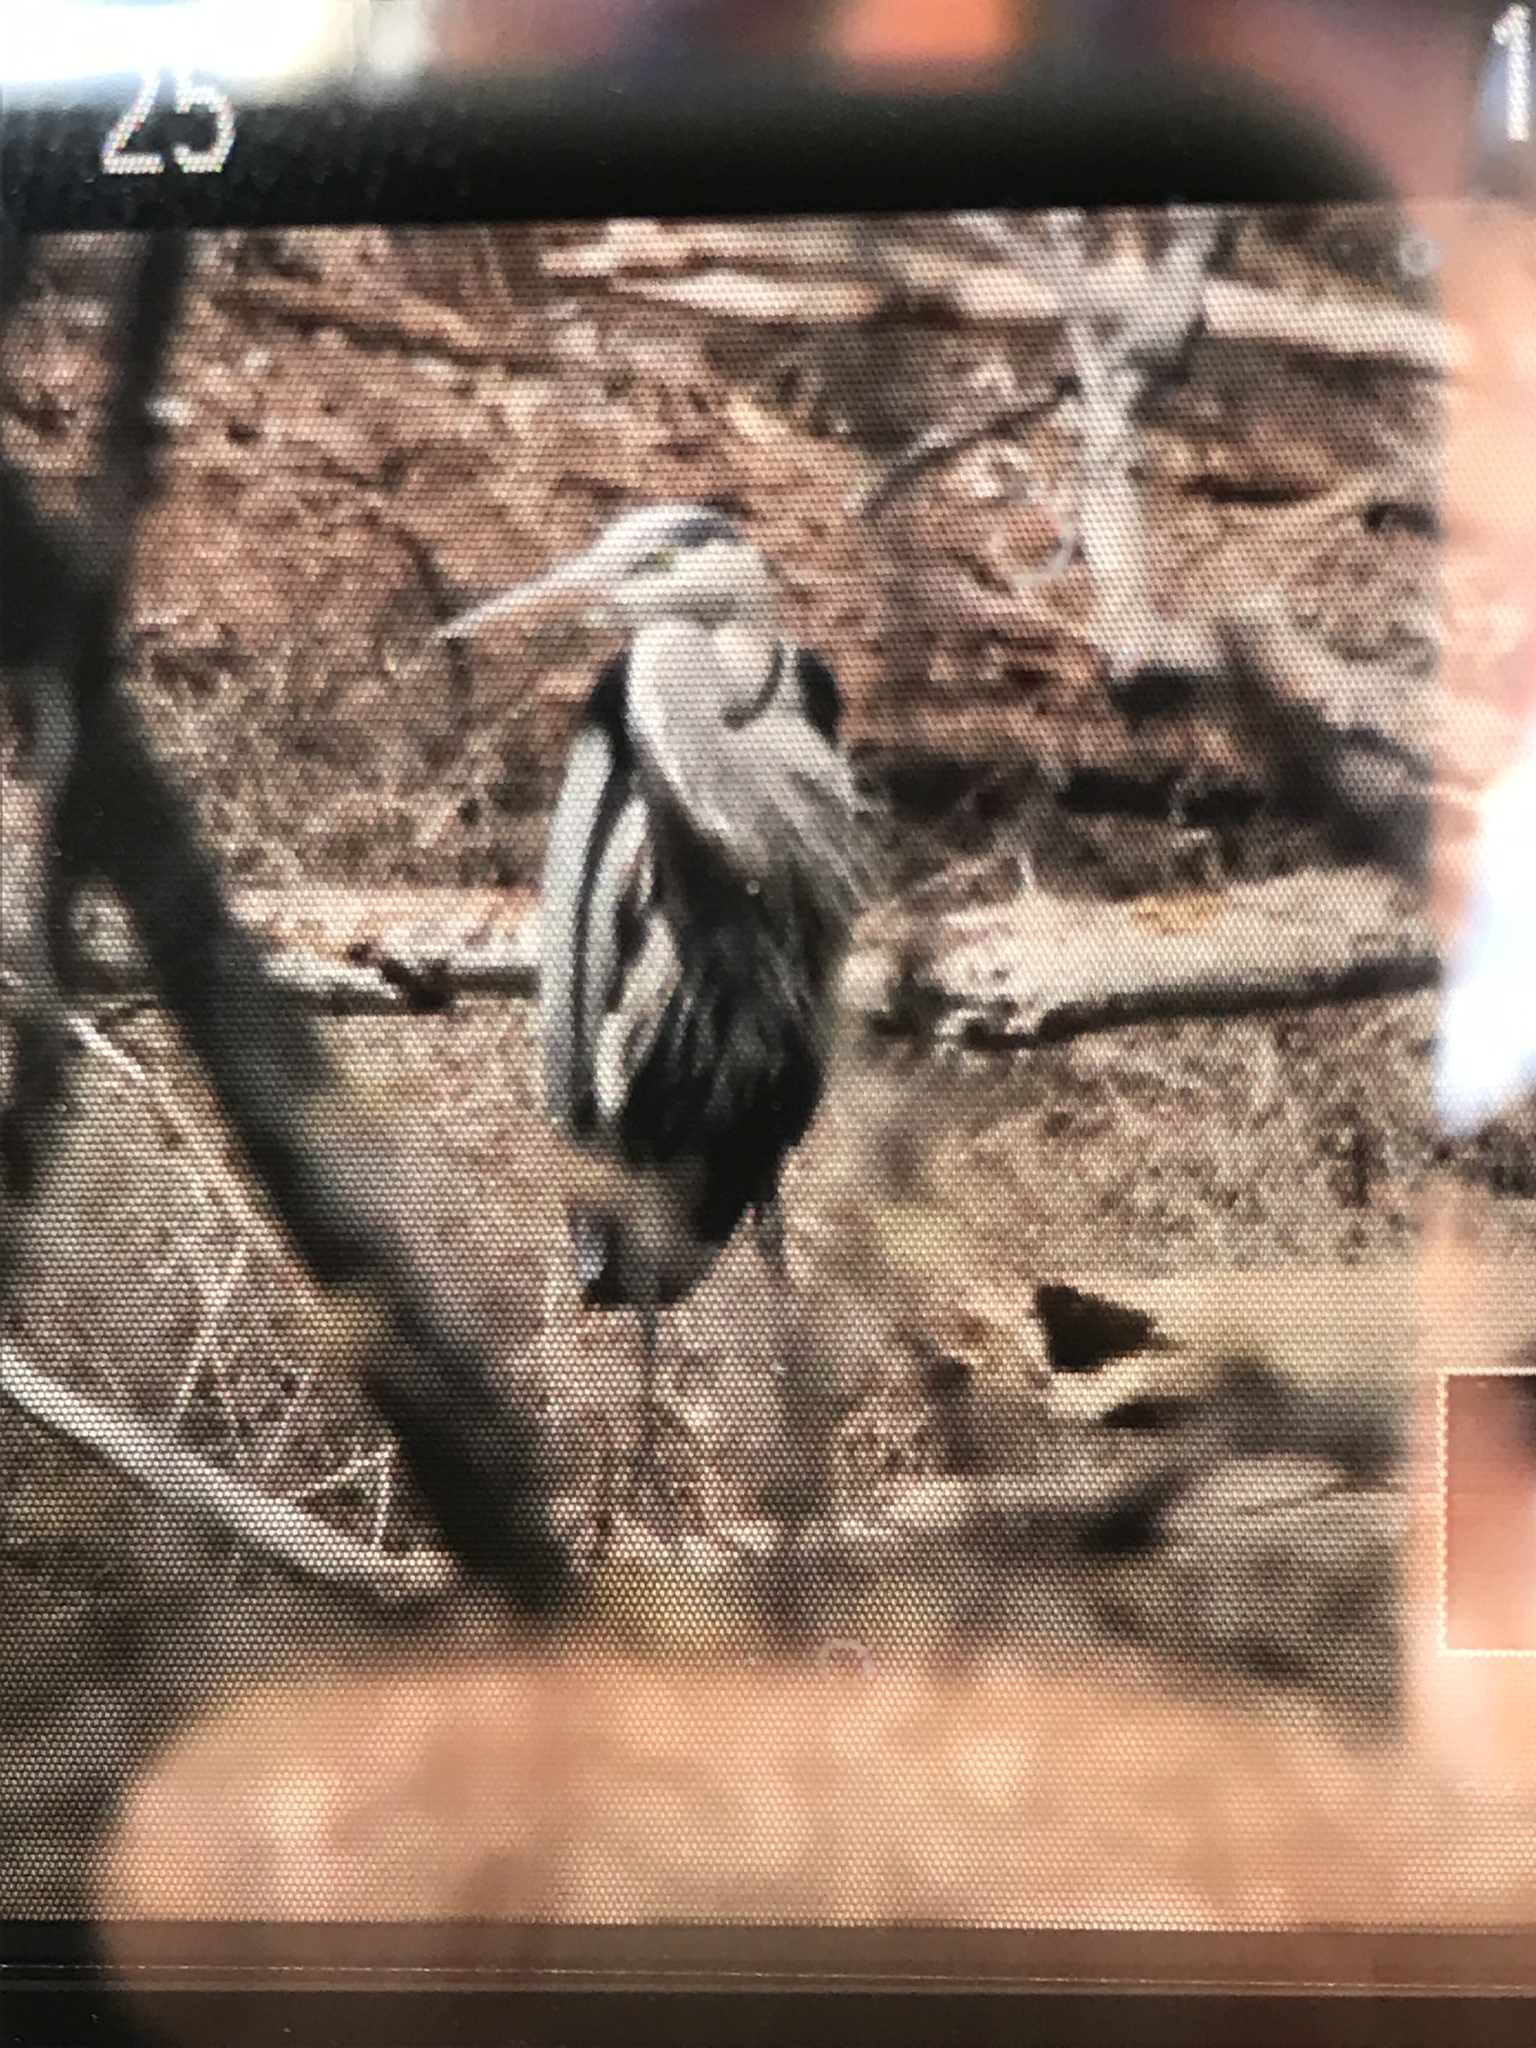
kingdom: Animalia
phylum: Chordata
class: Aves
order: Pelecaniformes
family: Ardeidae
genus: Ardea
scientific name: Ardea herodias
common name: Great blue heron
